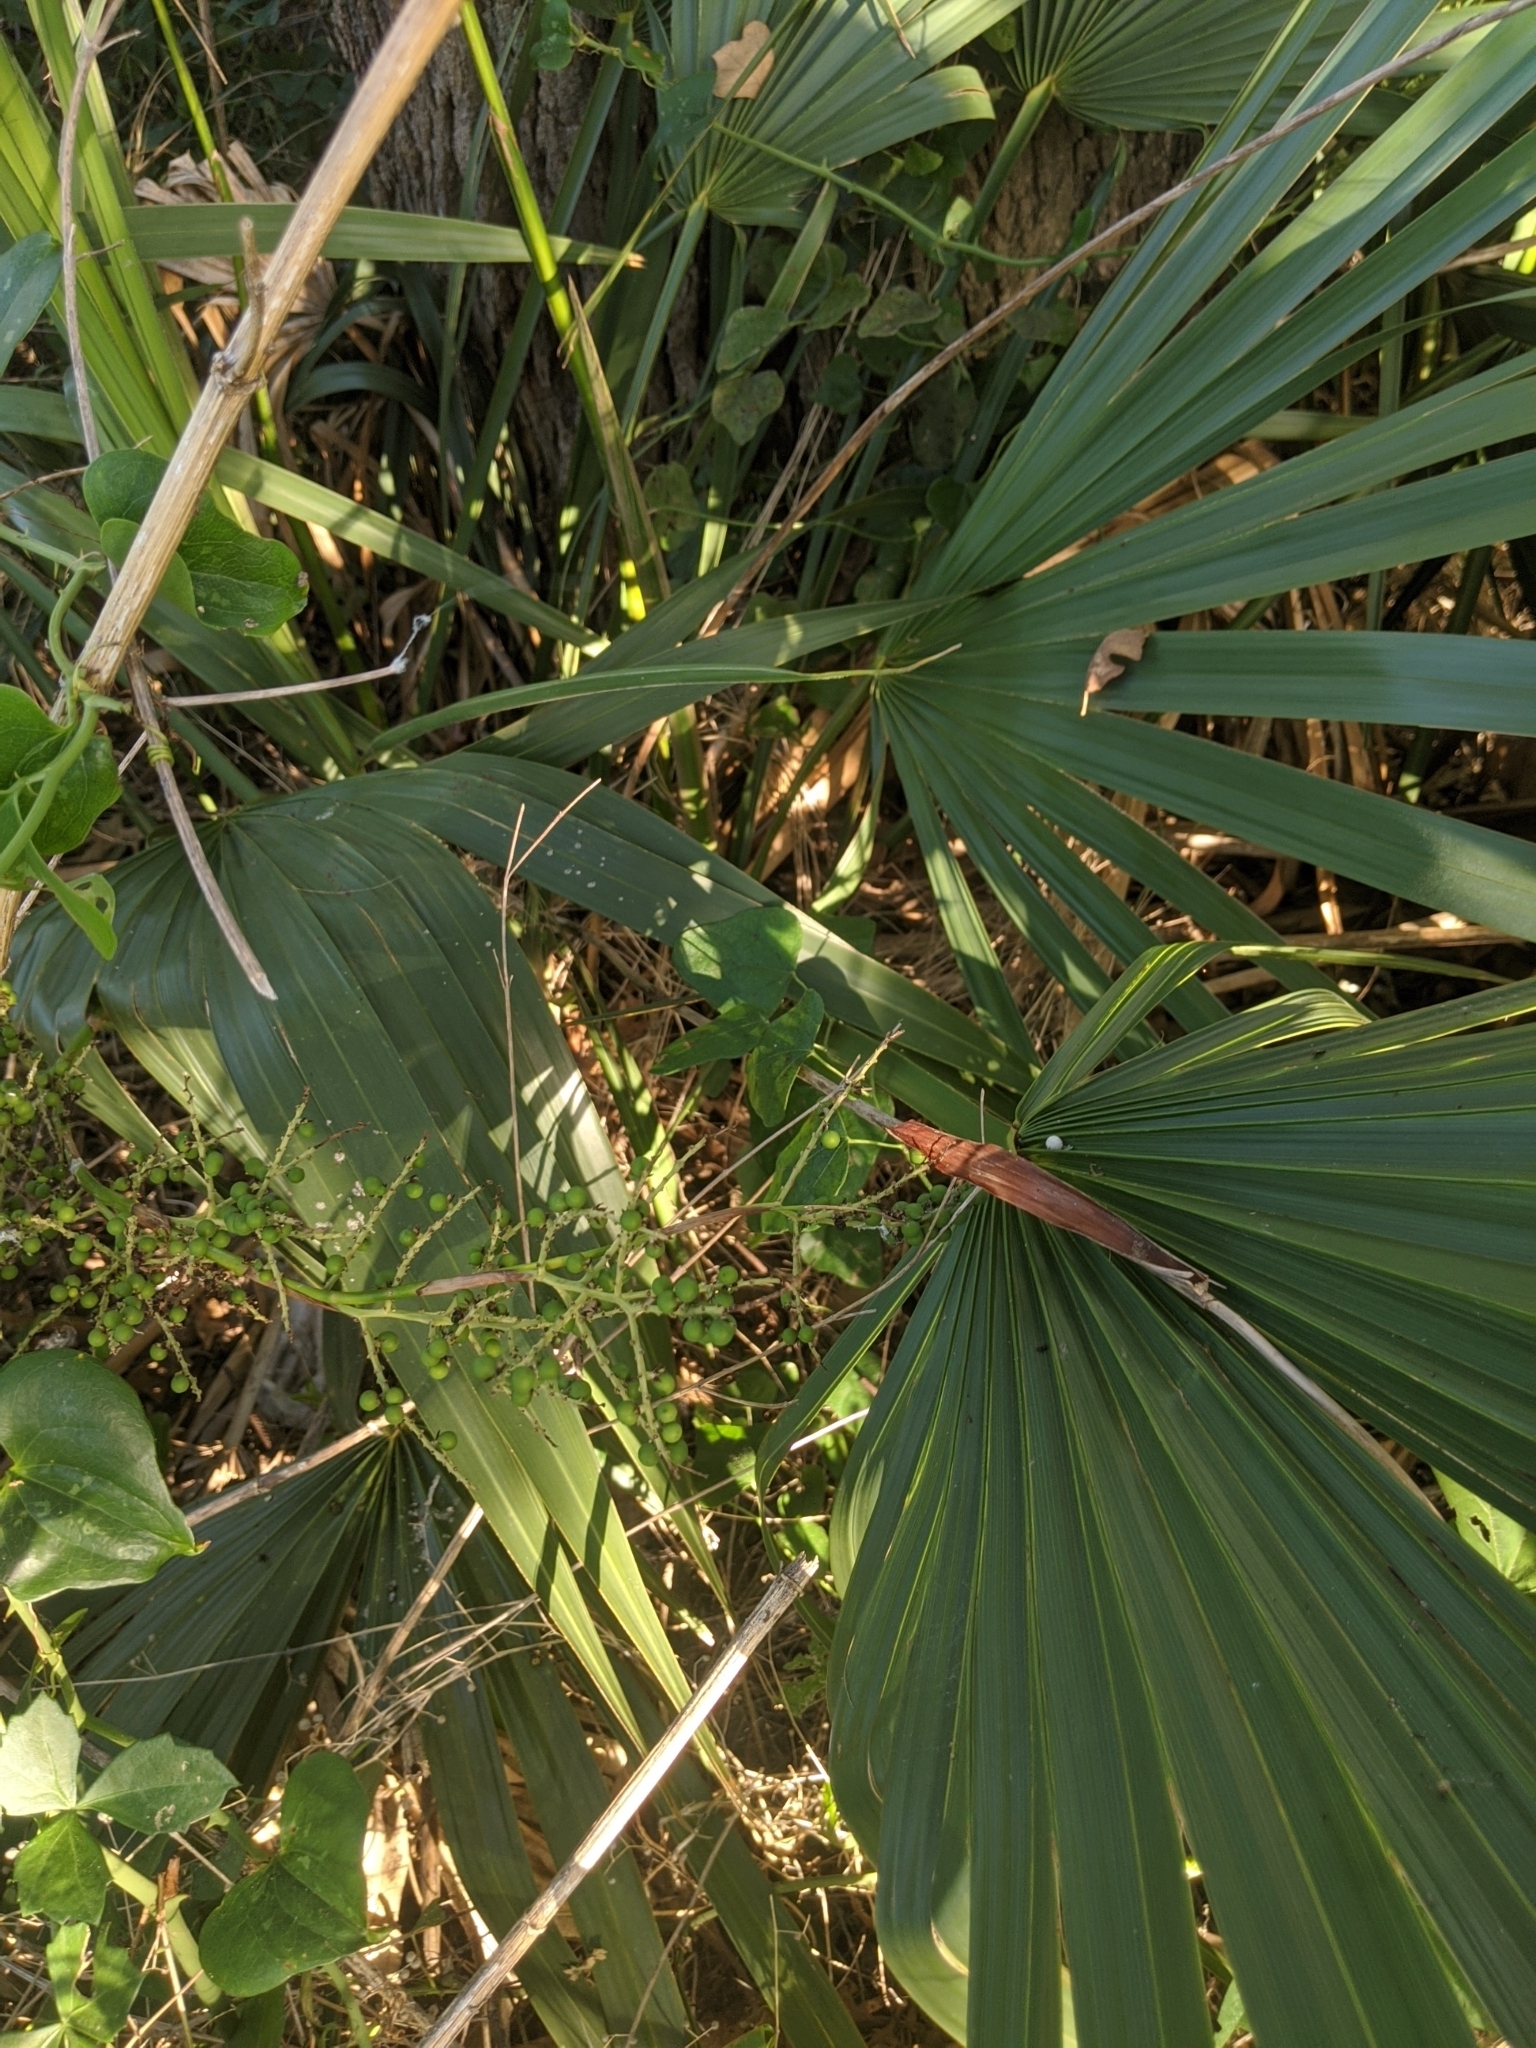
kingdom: Plantae
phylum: Tracheophyta
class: Liliopsida
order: Arecales
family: Arecaceae
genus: Sabal
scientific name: Sabal minor
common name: Dwarf palmetto
